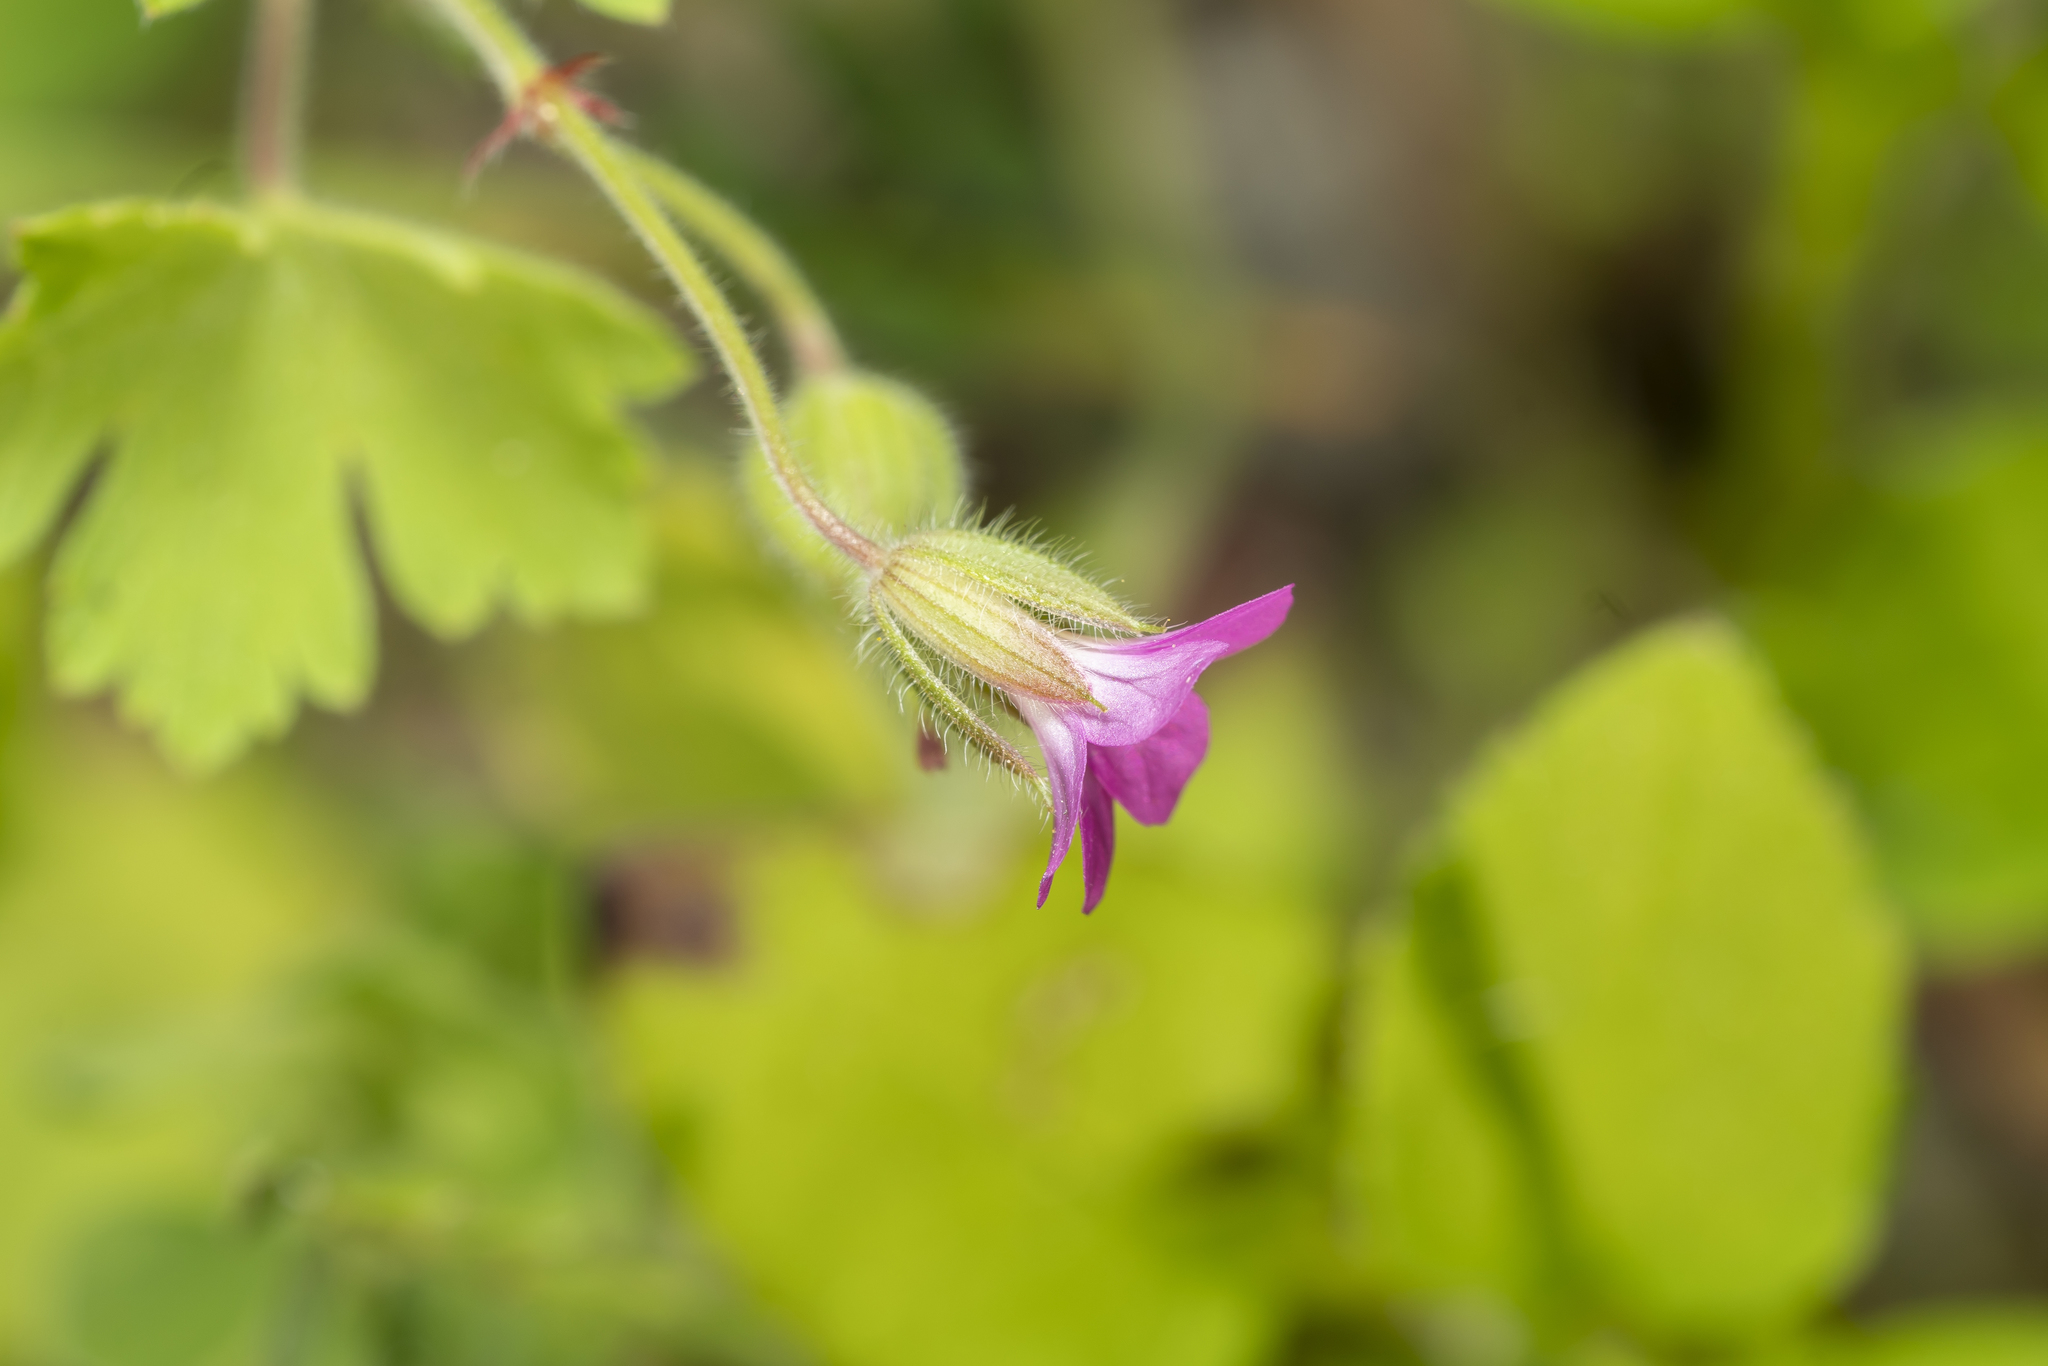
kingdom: Plantae
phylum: Tracheophyta
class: Magnoliopsida
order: Geraniales
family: Geraniaceae
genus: Geranium
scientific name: Geranium rotundifolium
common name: Round-leaved crane's-bill
